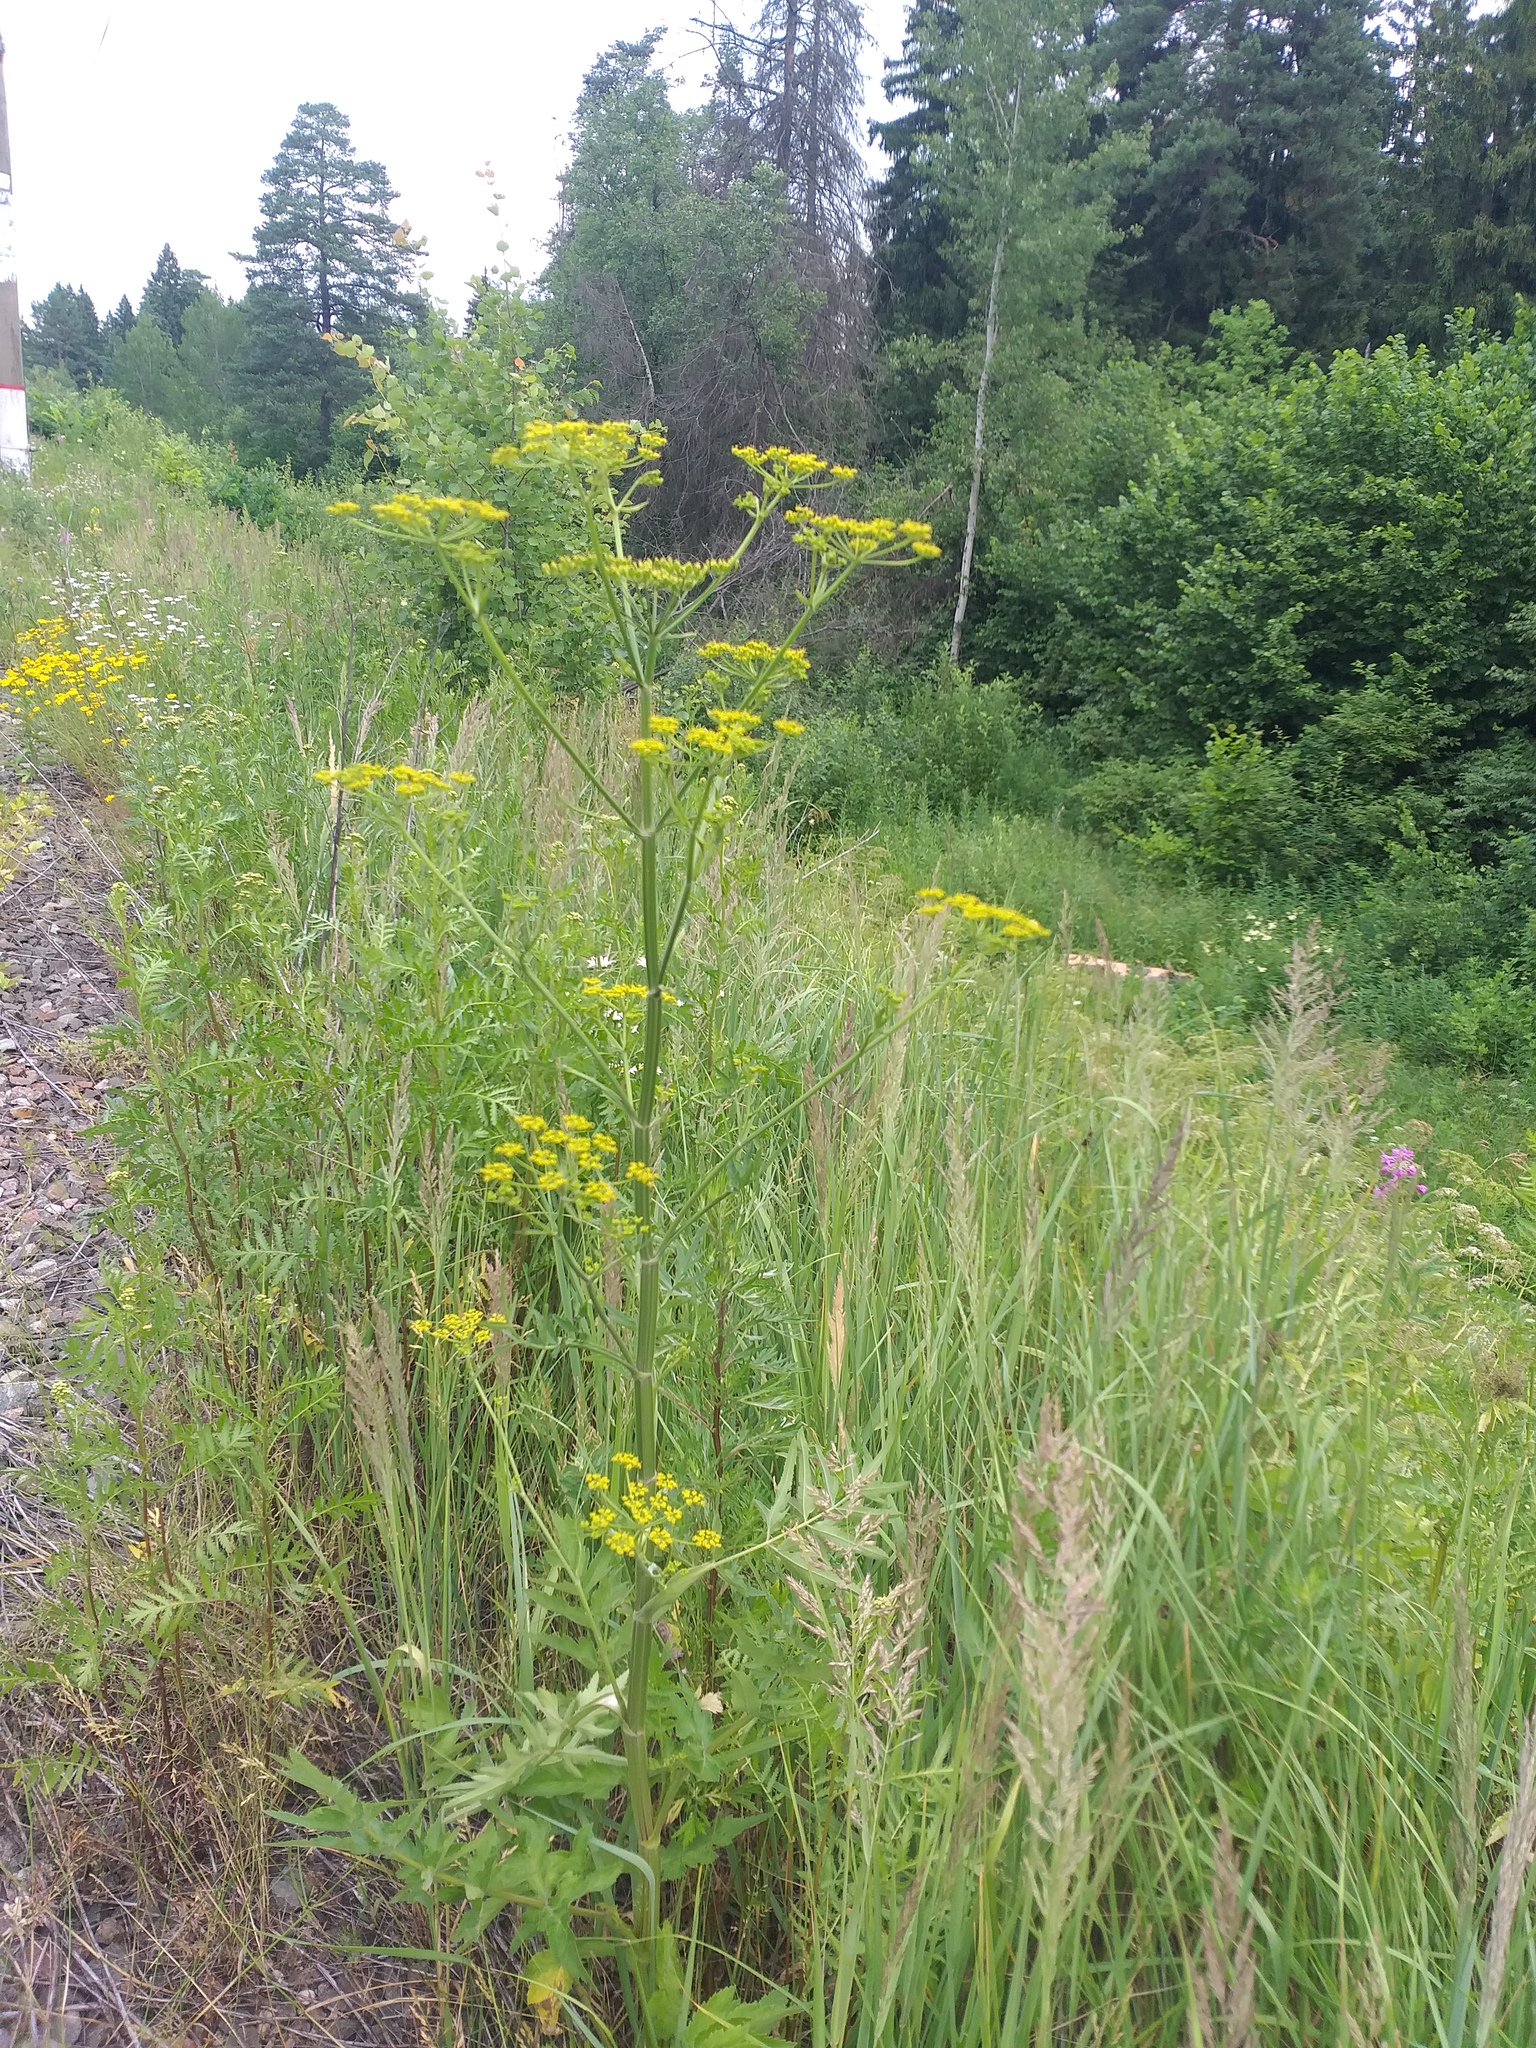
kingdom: Plantae
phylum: Tracheophyta
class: Magnoliopsida
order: Apiales
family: Apiaceae
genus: Pastinaca
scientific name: Pastinaca sativa
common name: Wild parsnip
